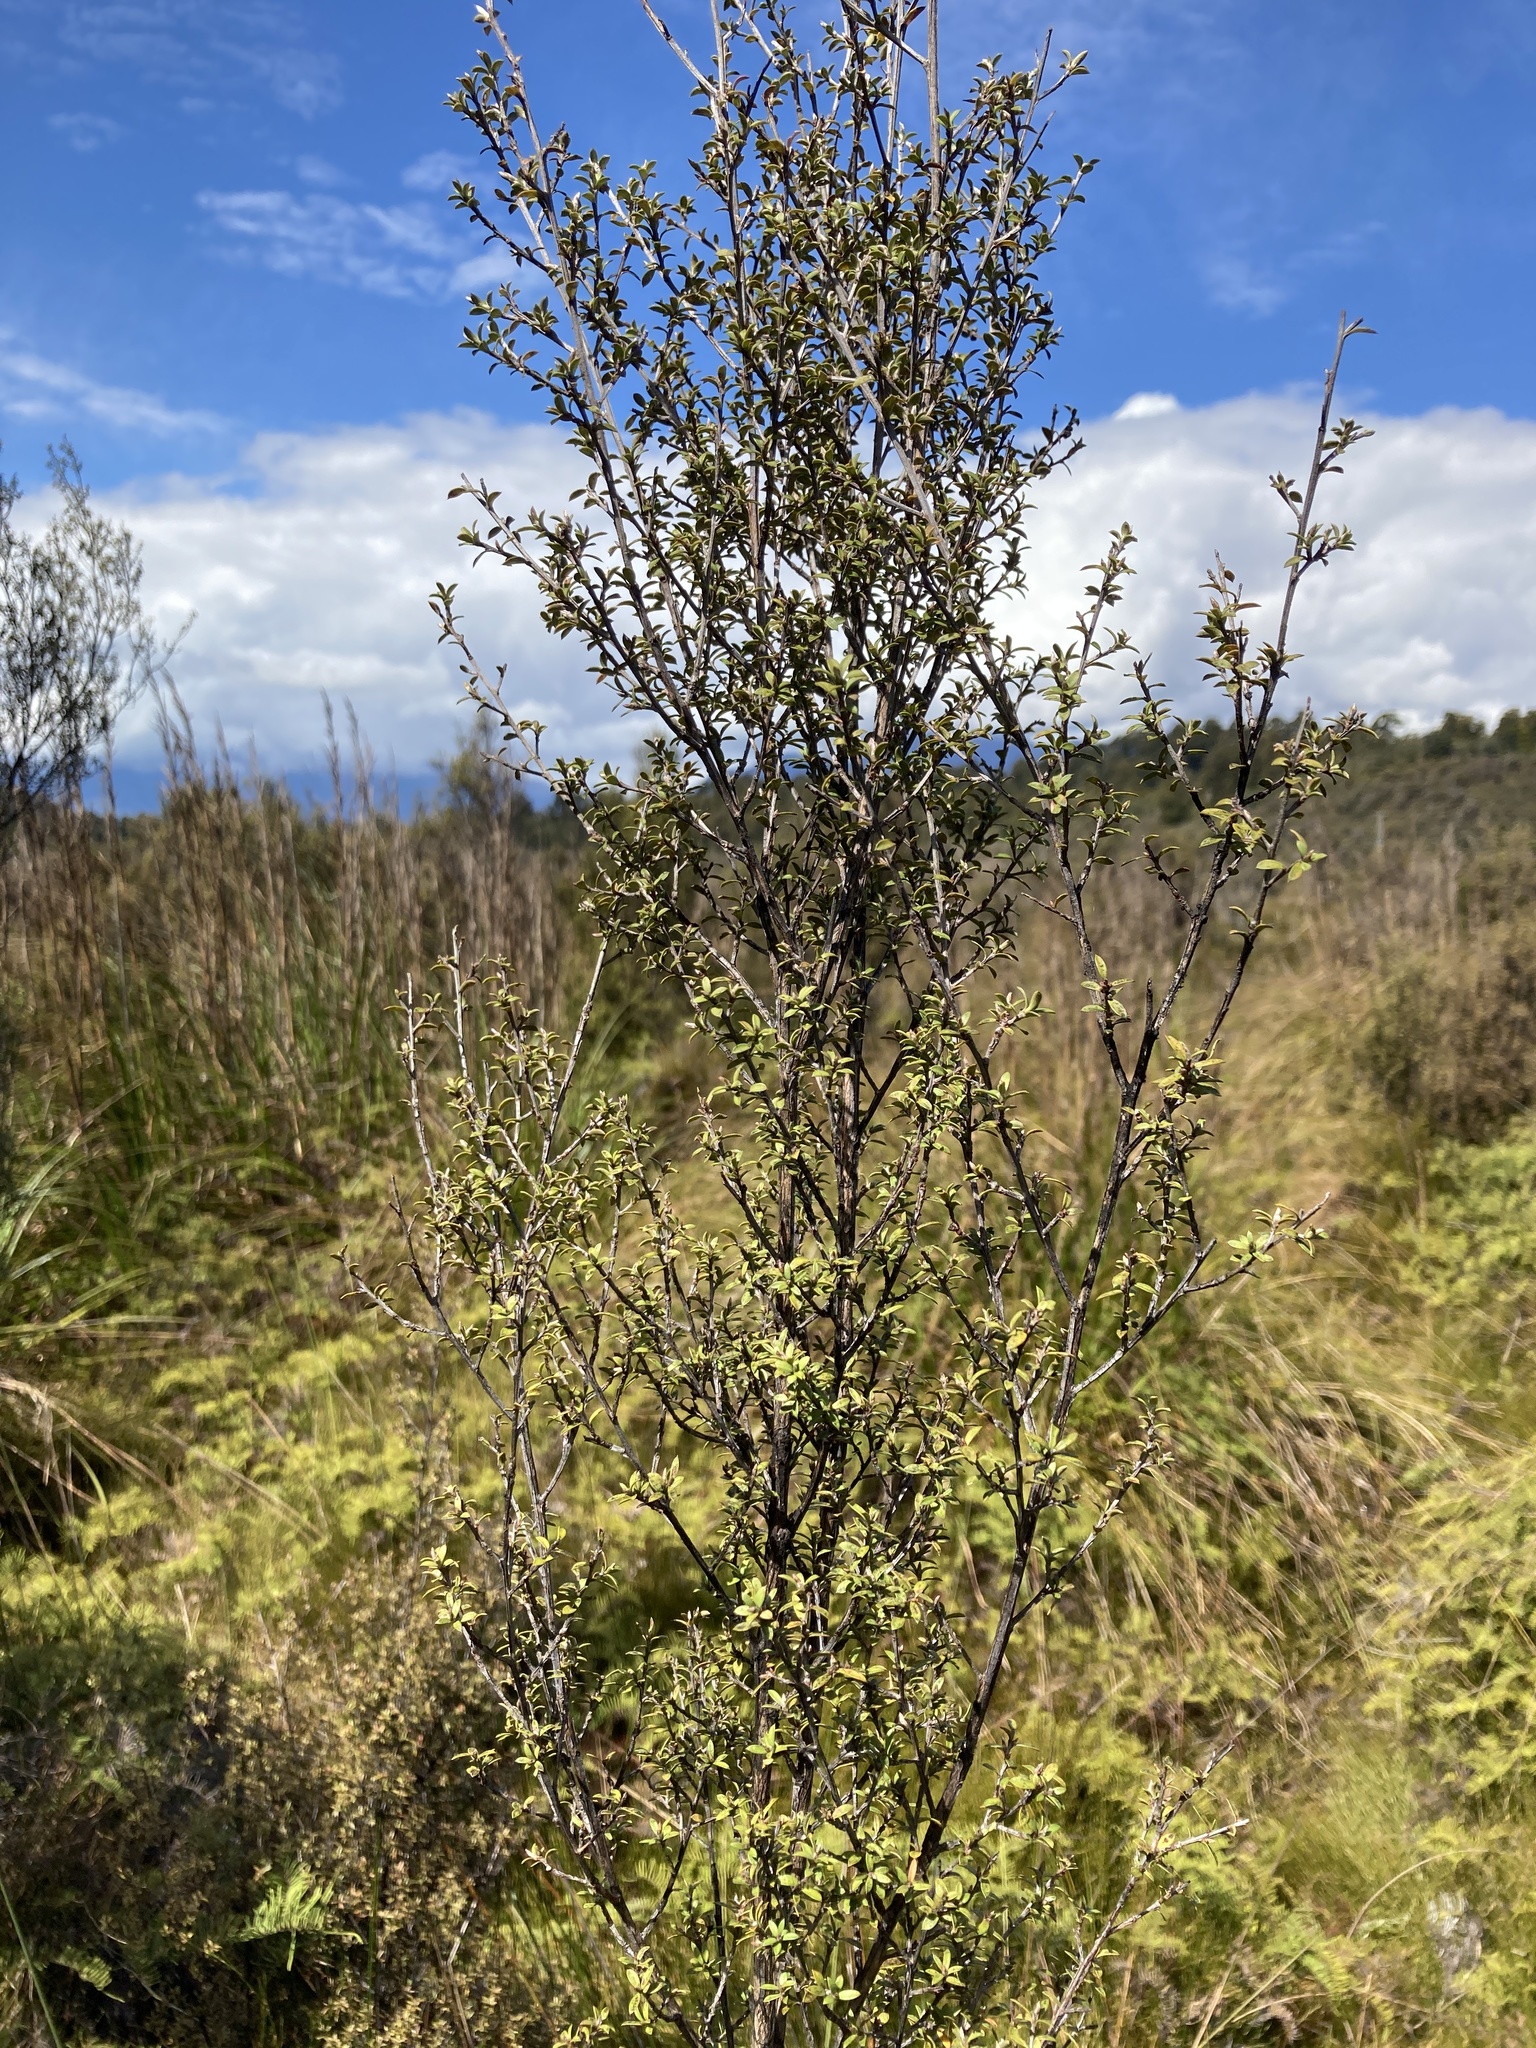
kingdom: Plantae
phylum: Tracheophyta
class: Magnoliopsida
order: Myrtales
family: Myrtaceae
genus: Leptospermum
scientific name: Leptospermum scoparium
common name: Broom tea-tree
